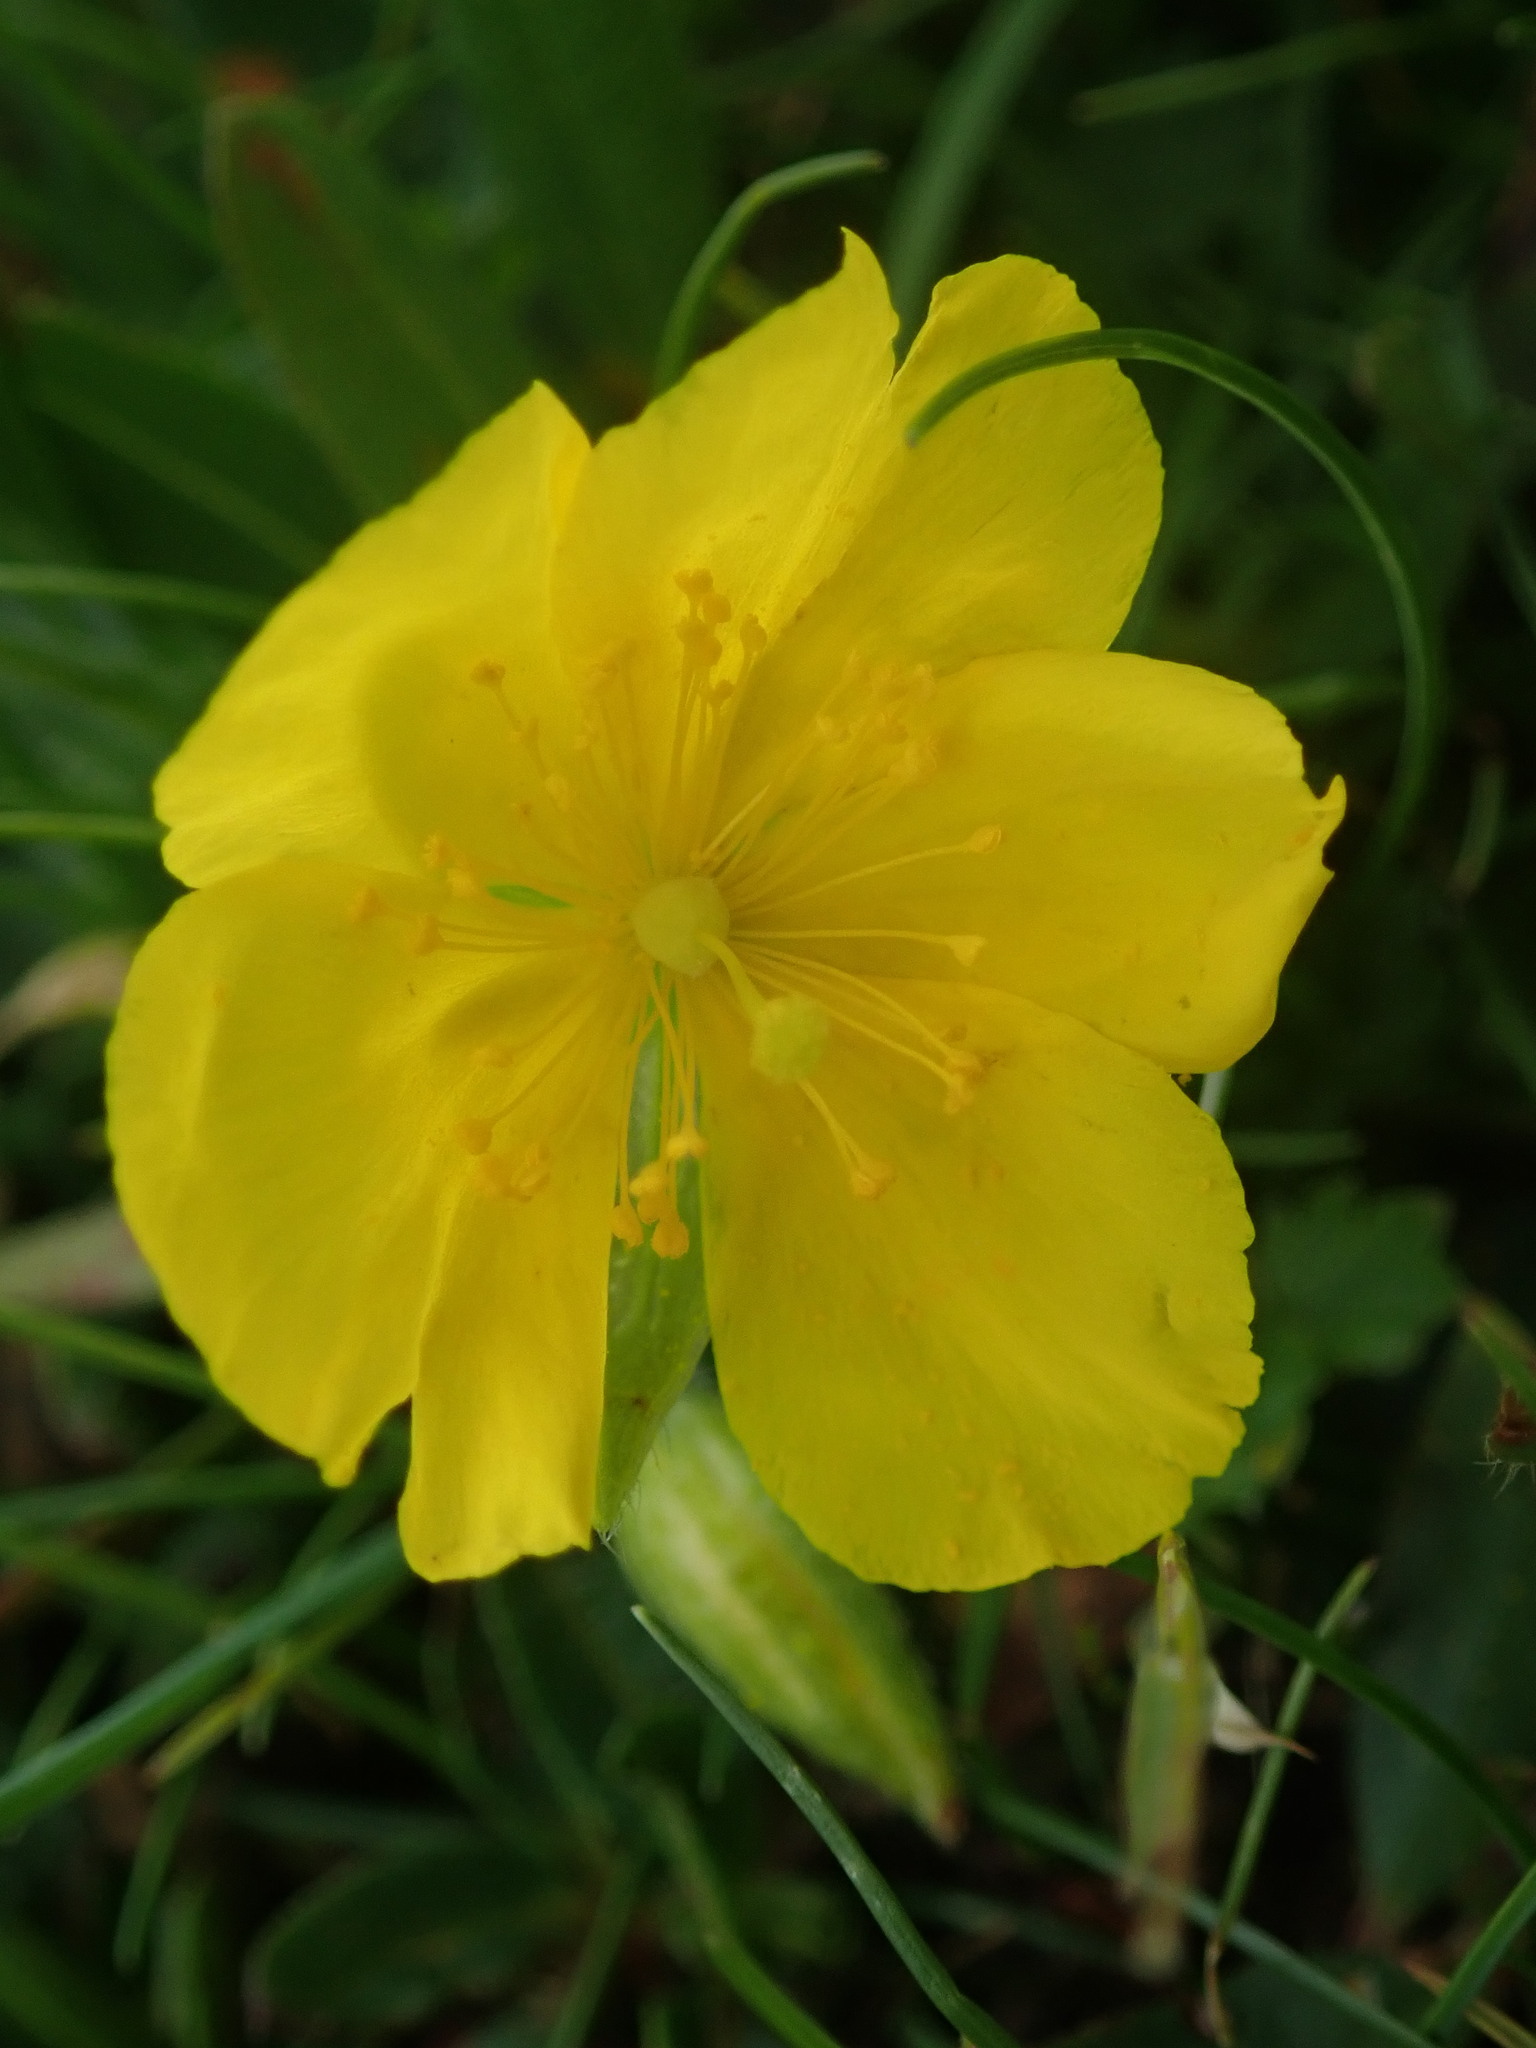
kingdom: Plantae
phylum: Tracheophyta
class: Magnoliopsida
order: Malvales
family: Cistaceae
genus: Helianthemum
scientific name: Helianthemum nummularium
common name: Common rock-rose
